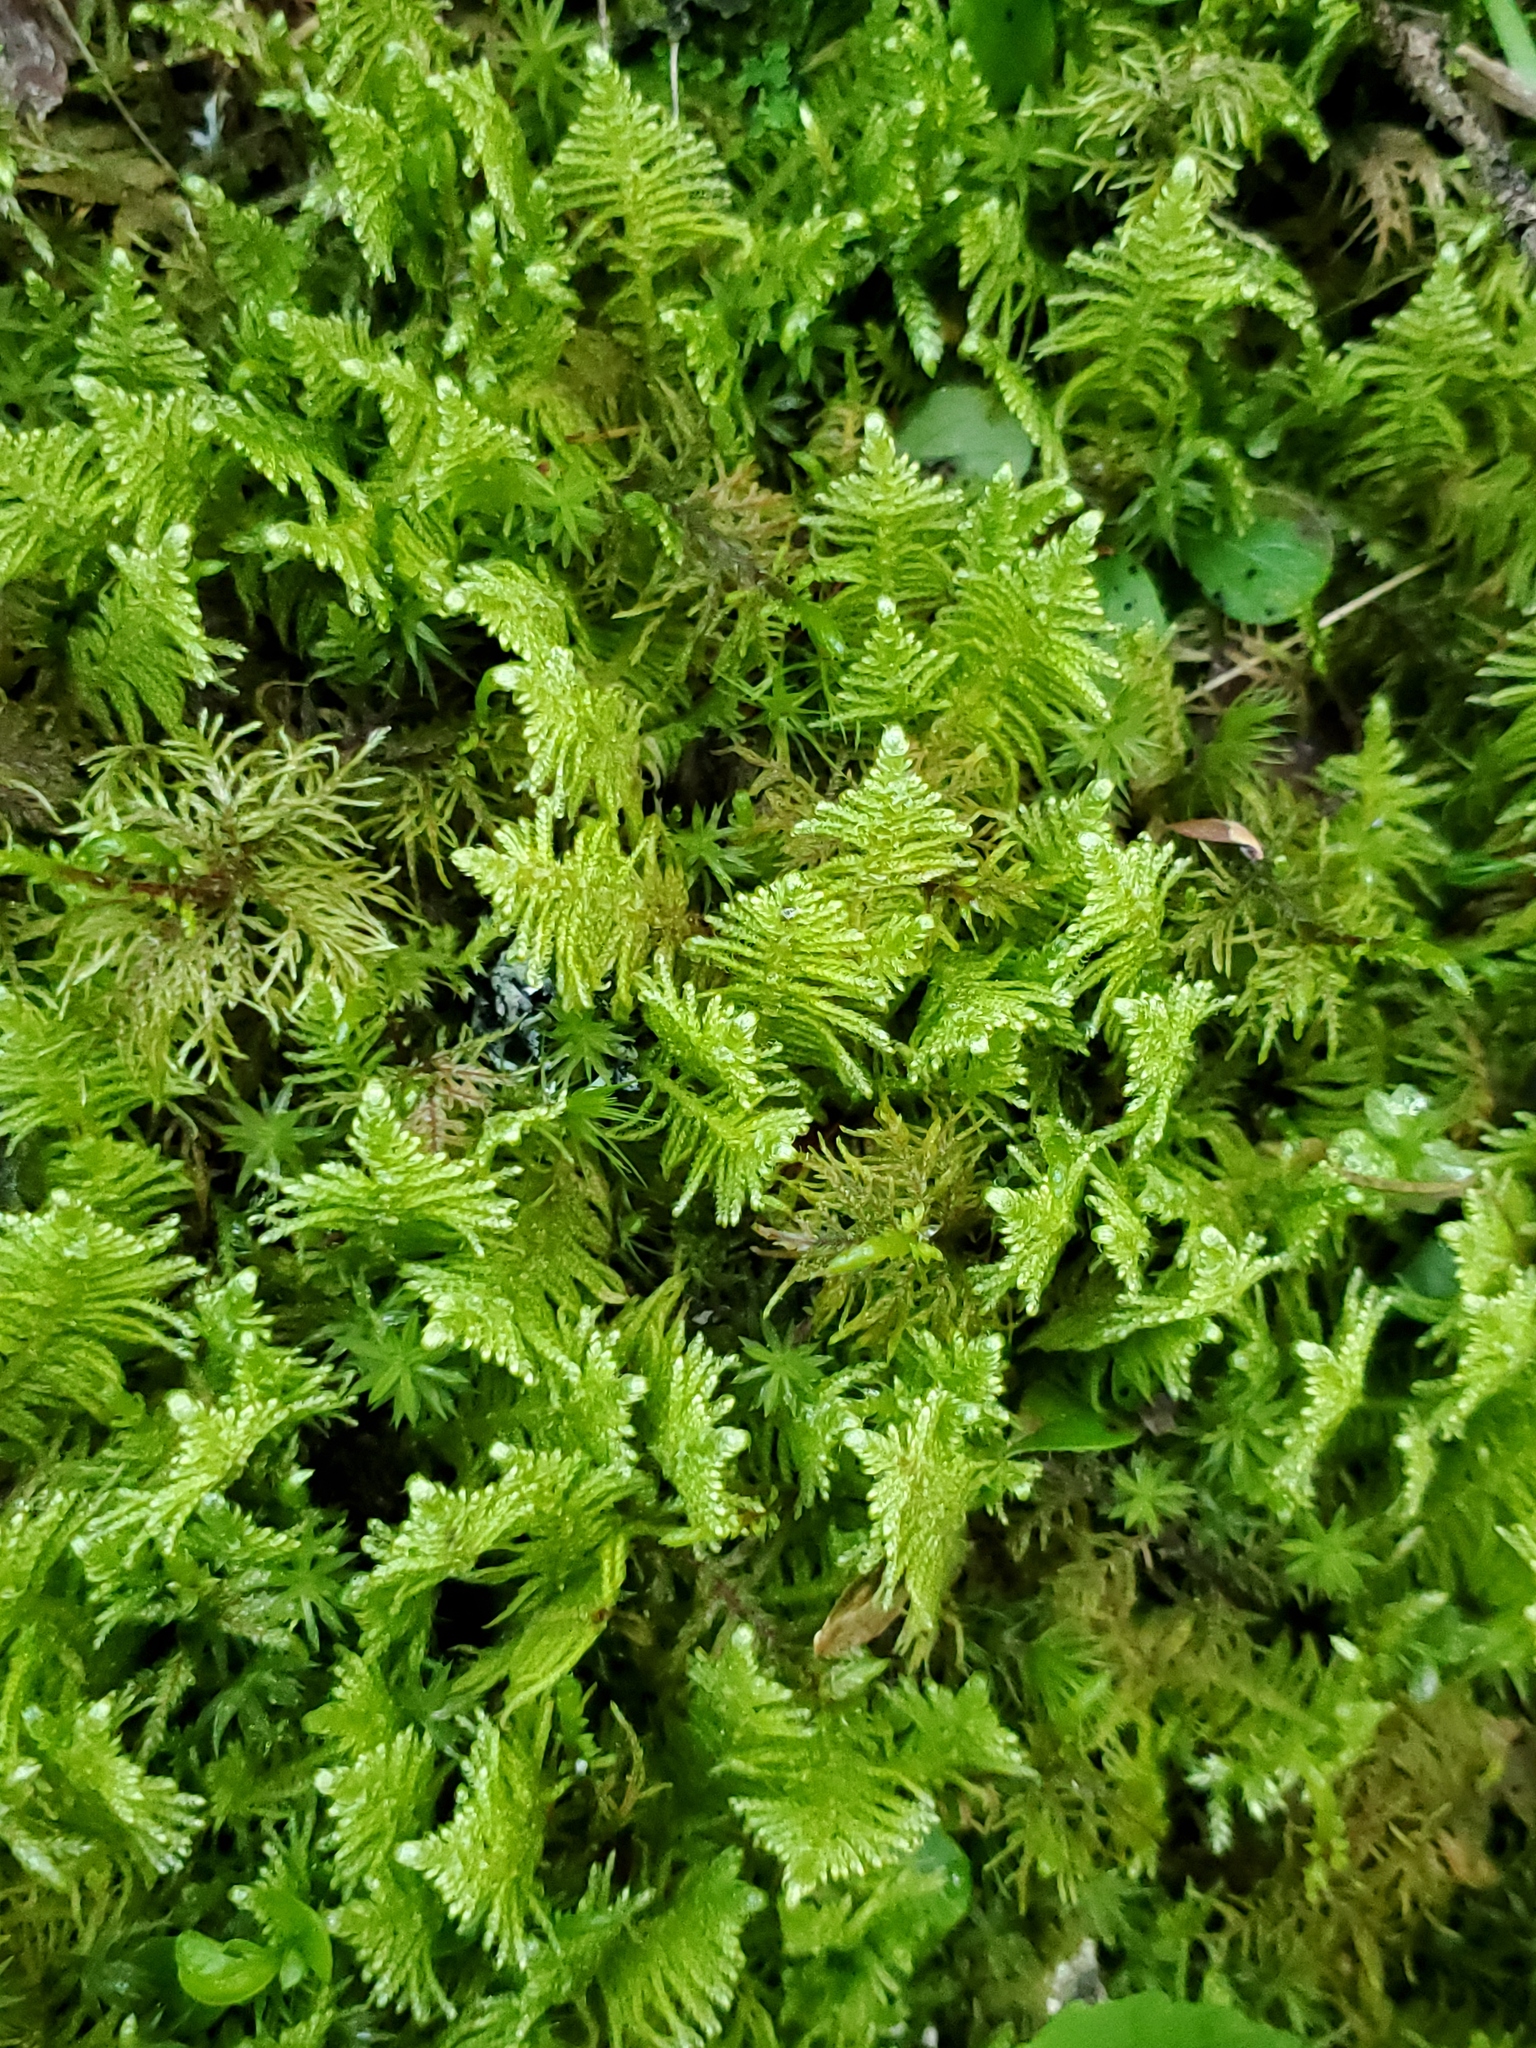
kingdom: Plantae
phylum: Bryophyta
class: Bryopsida
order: Hypnales
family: Pylaisiaceae
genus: Ptilium
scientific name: Ptilium crista-castrensis
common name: Knight's plume moss
